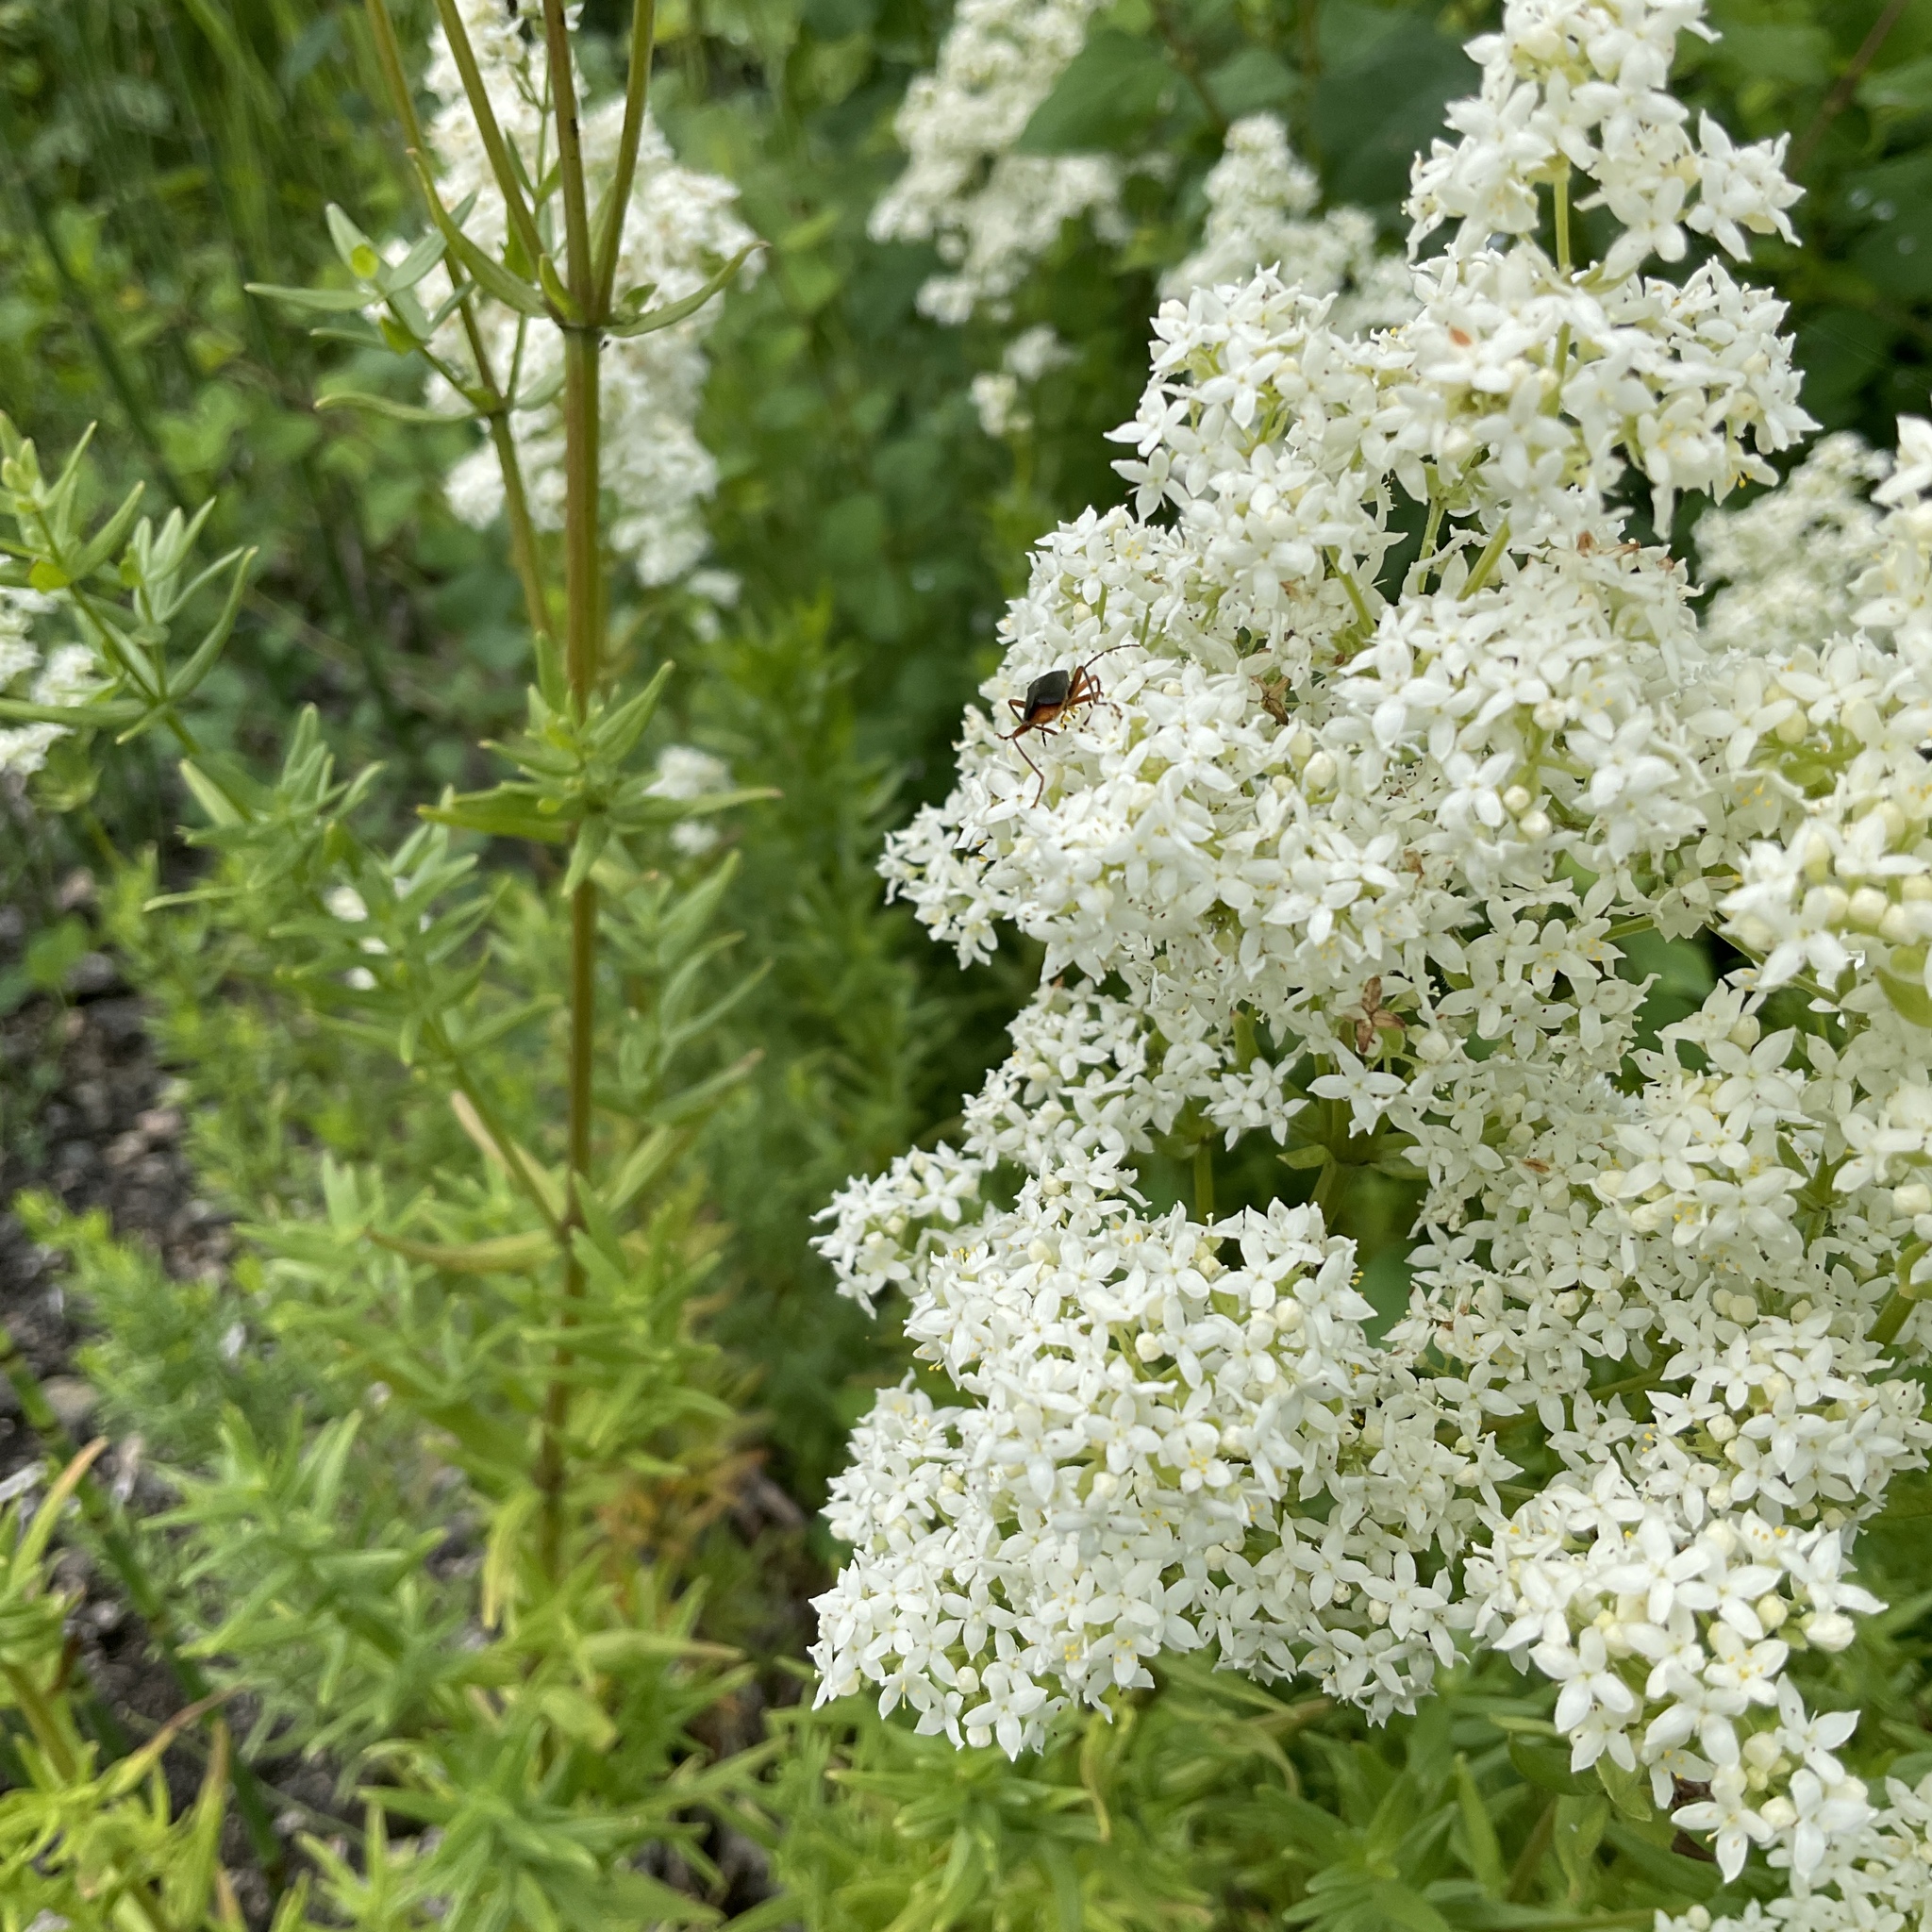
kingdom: Plantae
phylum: Tracheophyta
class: Magnoliopsida
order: Gentianales
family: Rubiaceae
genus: Galium
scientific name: Galium boreale
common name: Northern bedstraw
